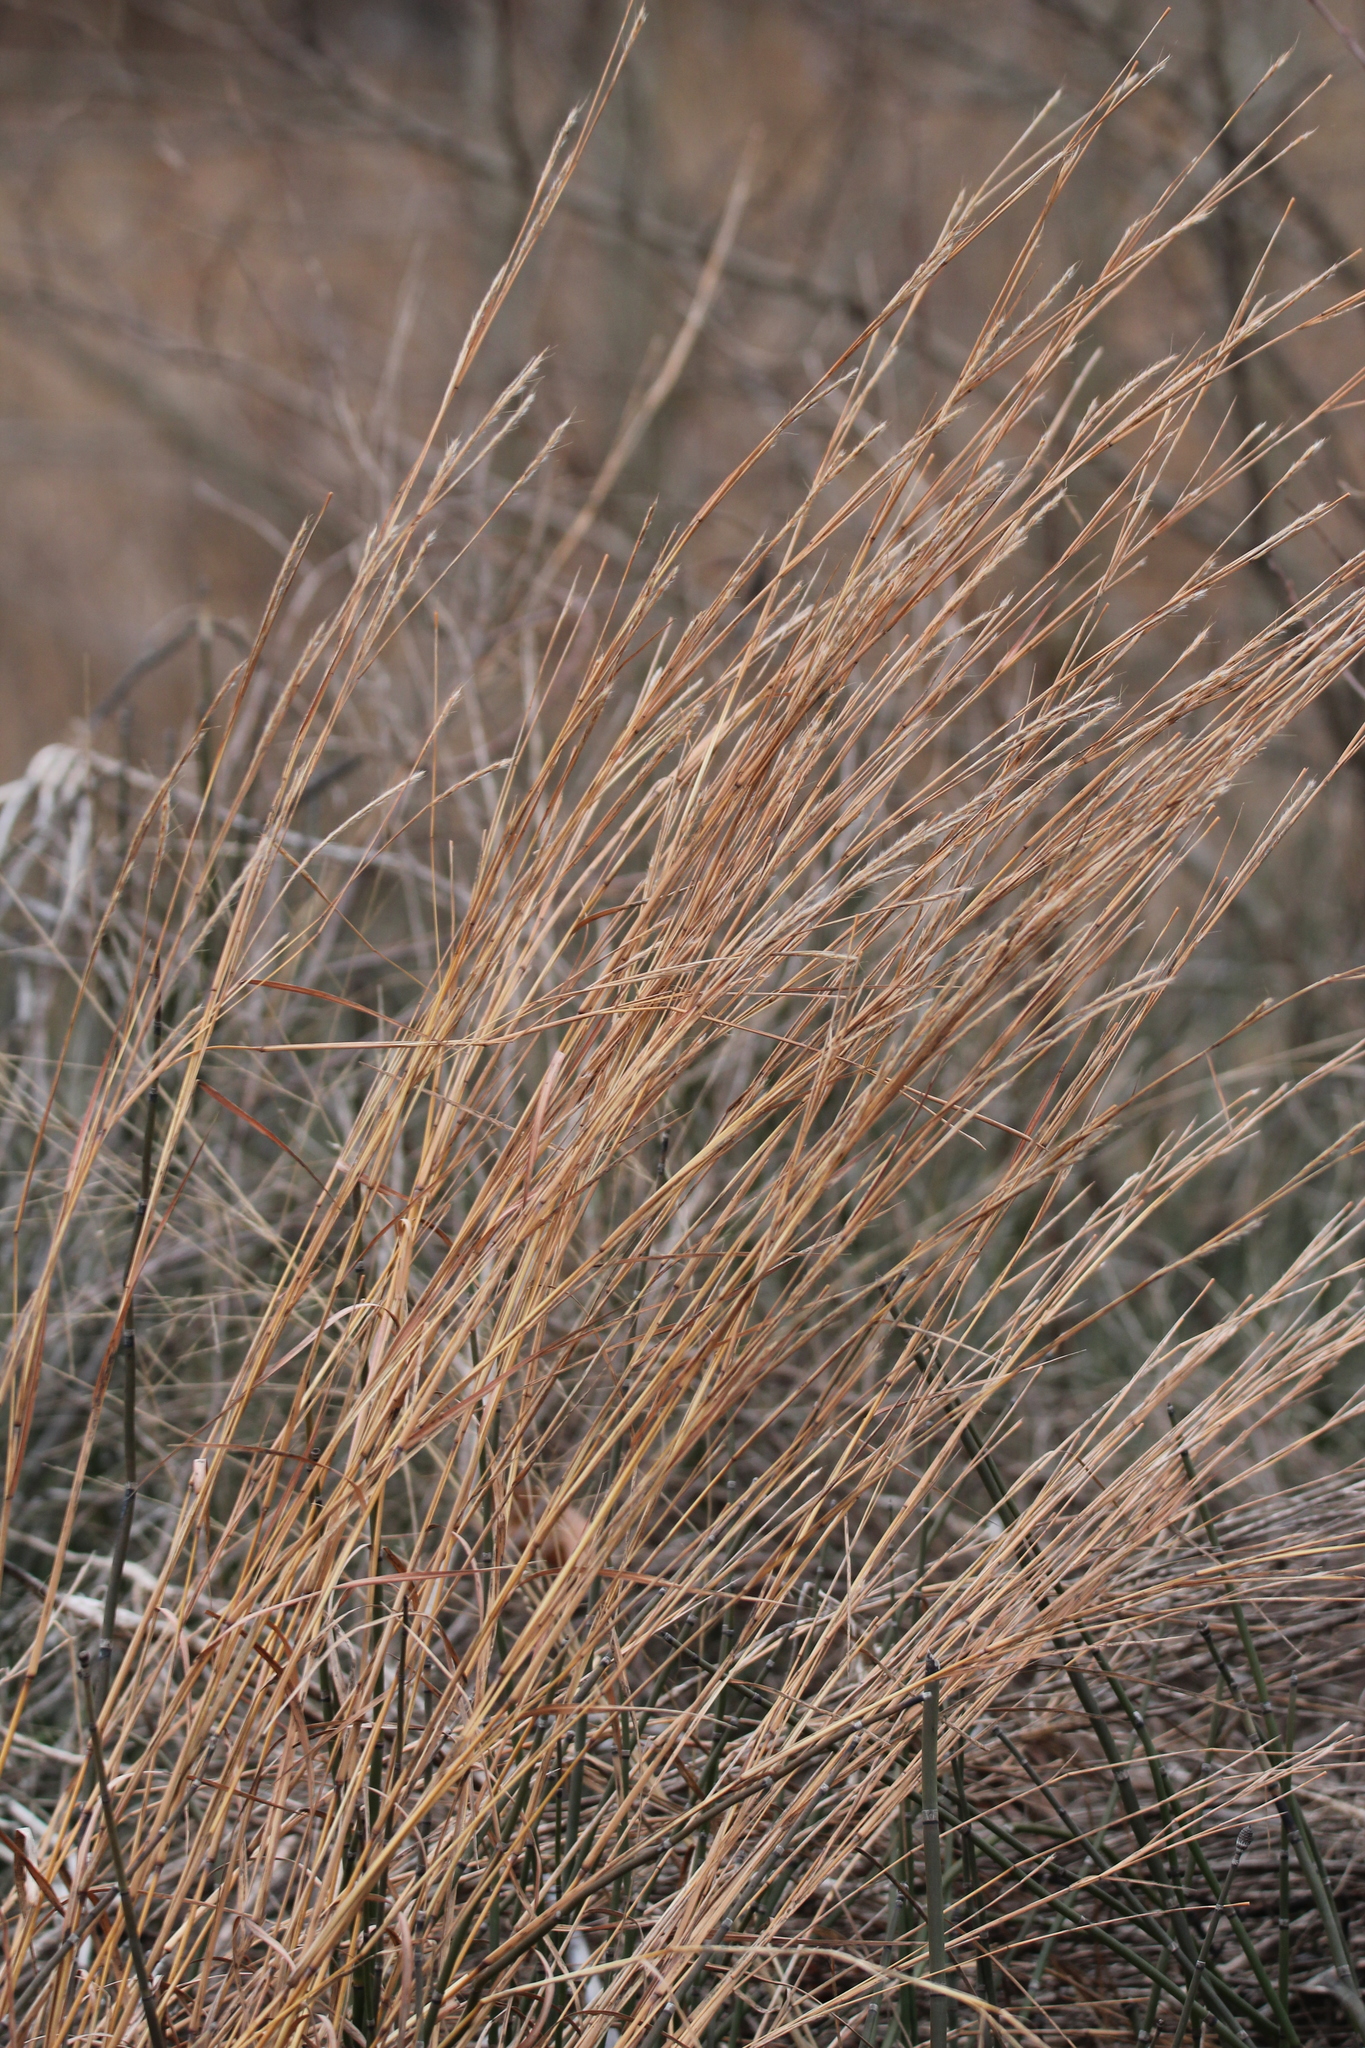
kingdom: Plantae
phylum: Tracheophyta
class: Liliopsida
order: Poales
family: Poaceae
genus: Schizachyrium
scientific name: Schizachyrium scoparium
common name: Little bluestem
